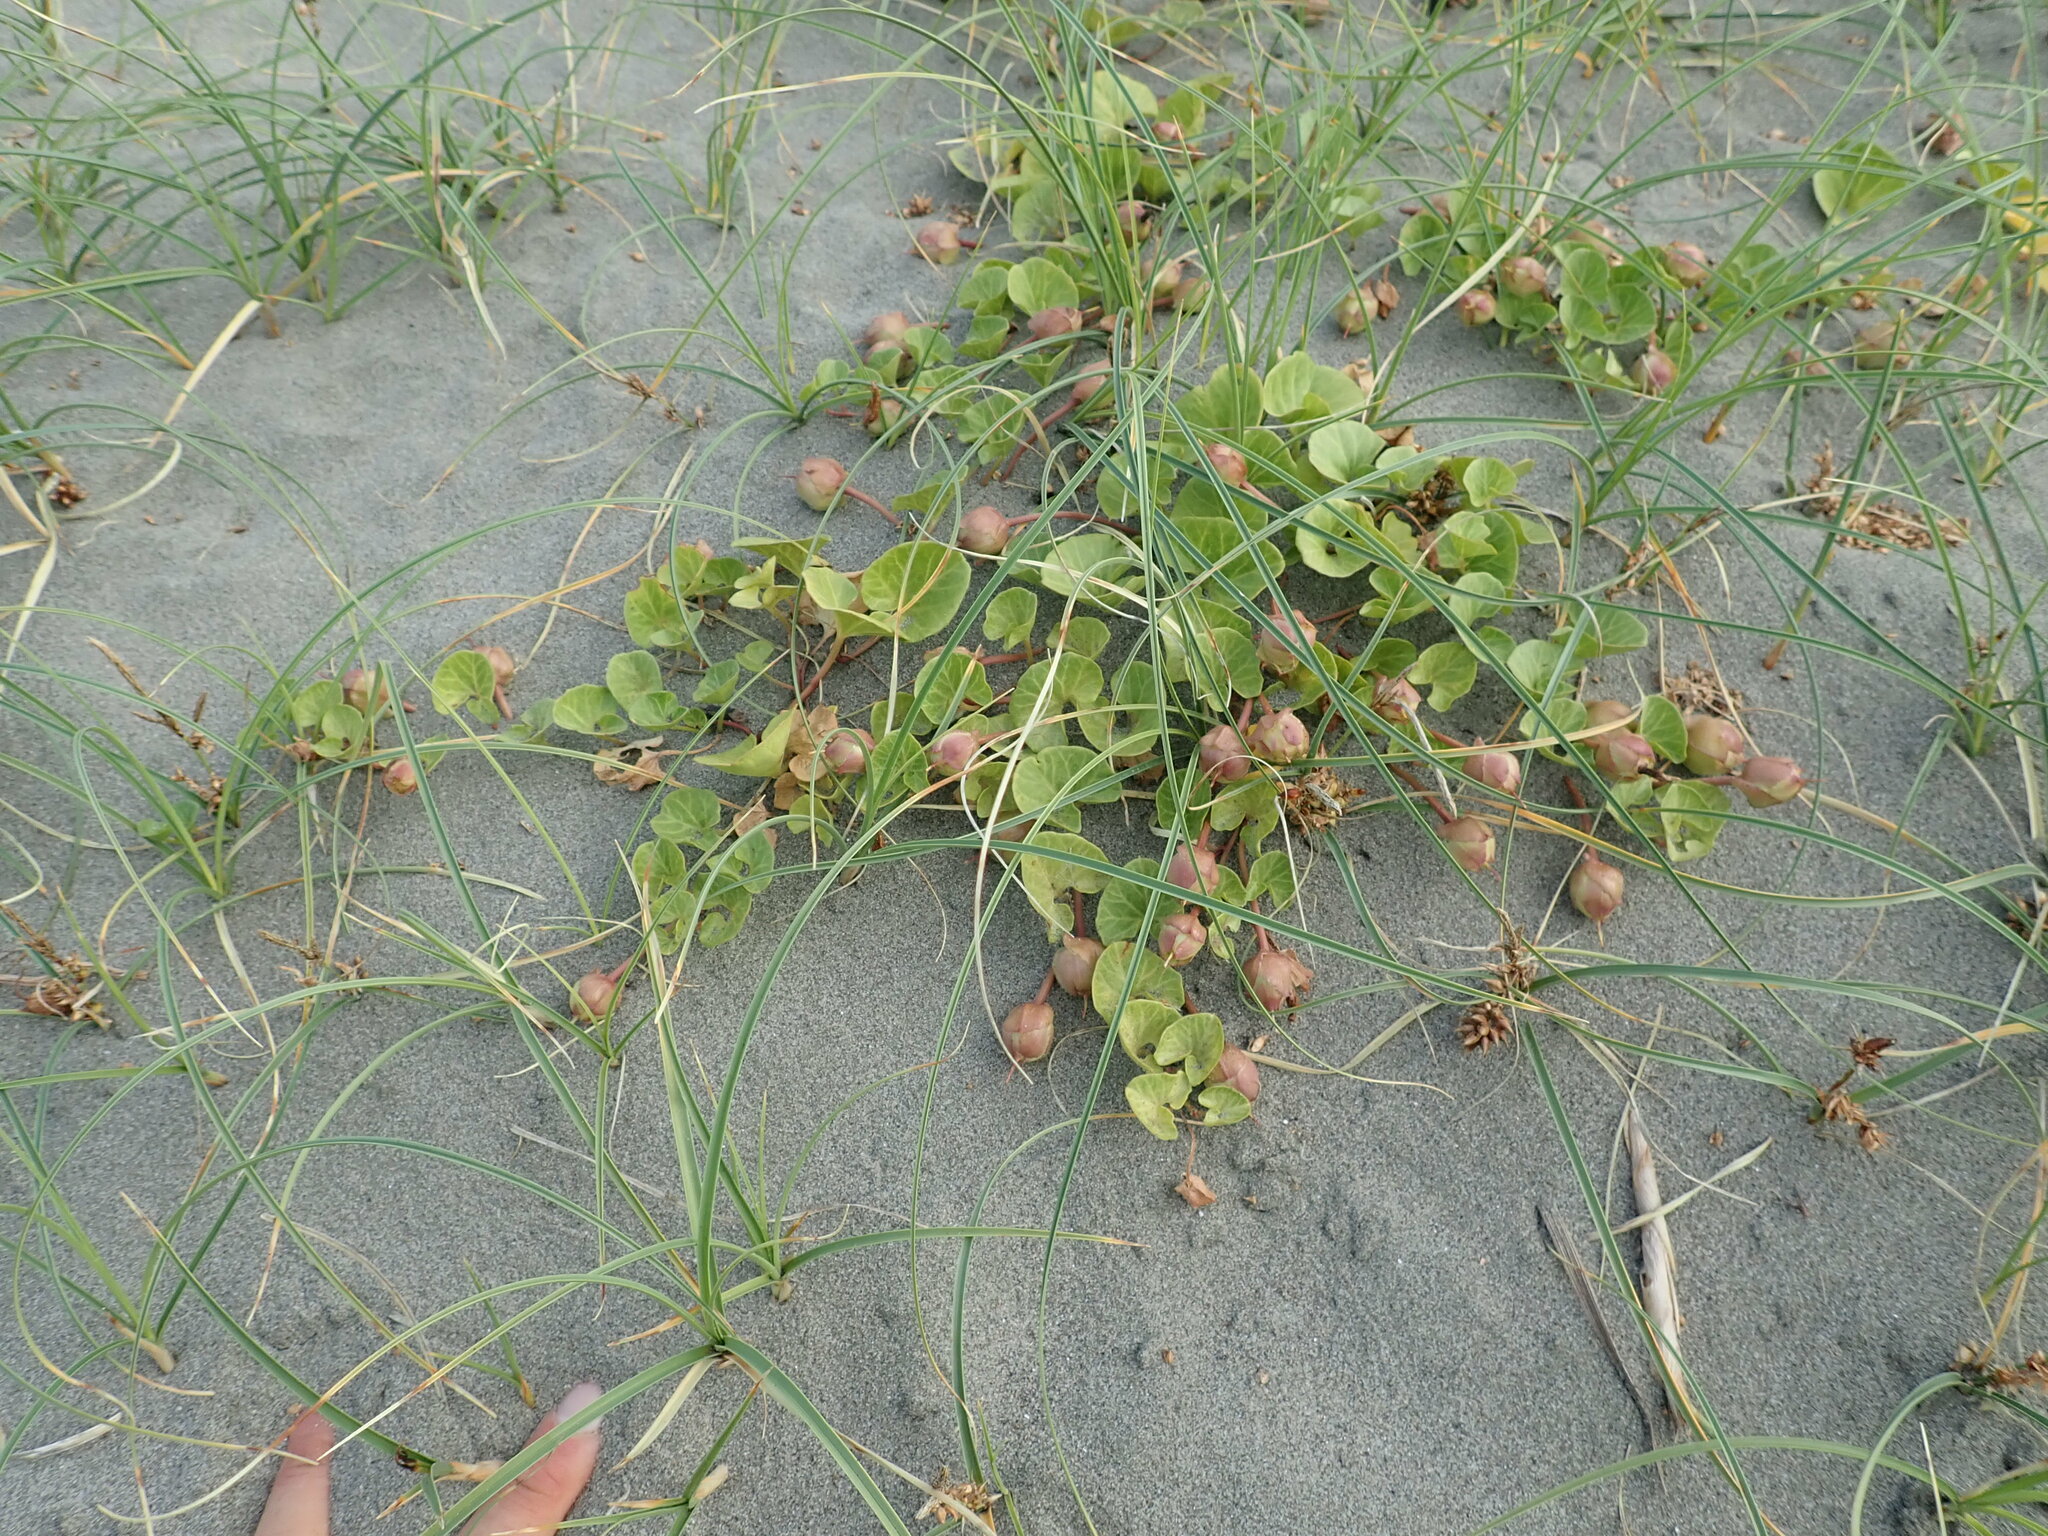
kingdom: Plantae
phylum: Tracheophyta
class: Magnoliopsida
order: Solanales
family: Convolvulaceae
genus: Calystegia
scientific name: Calystegia soldanella
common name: Sea bindweed
